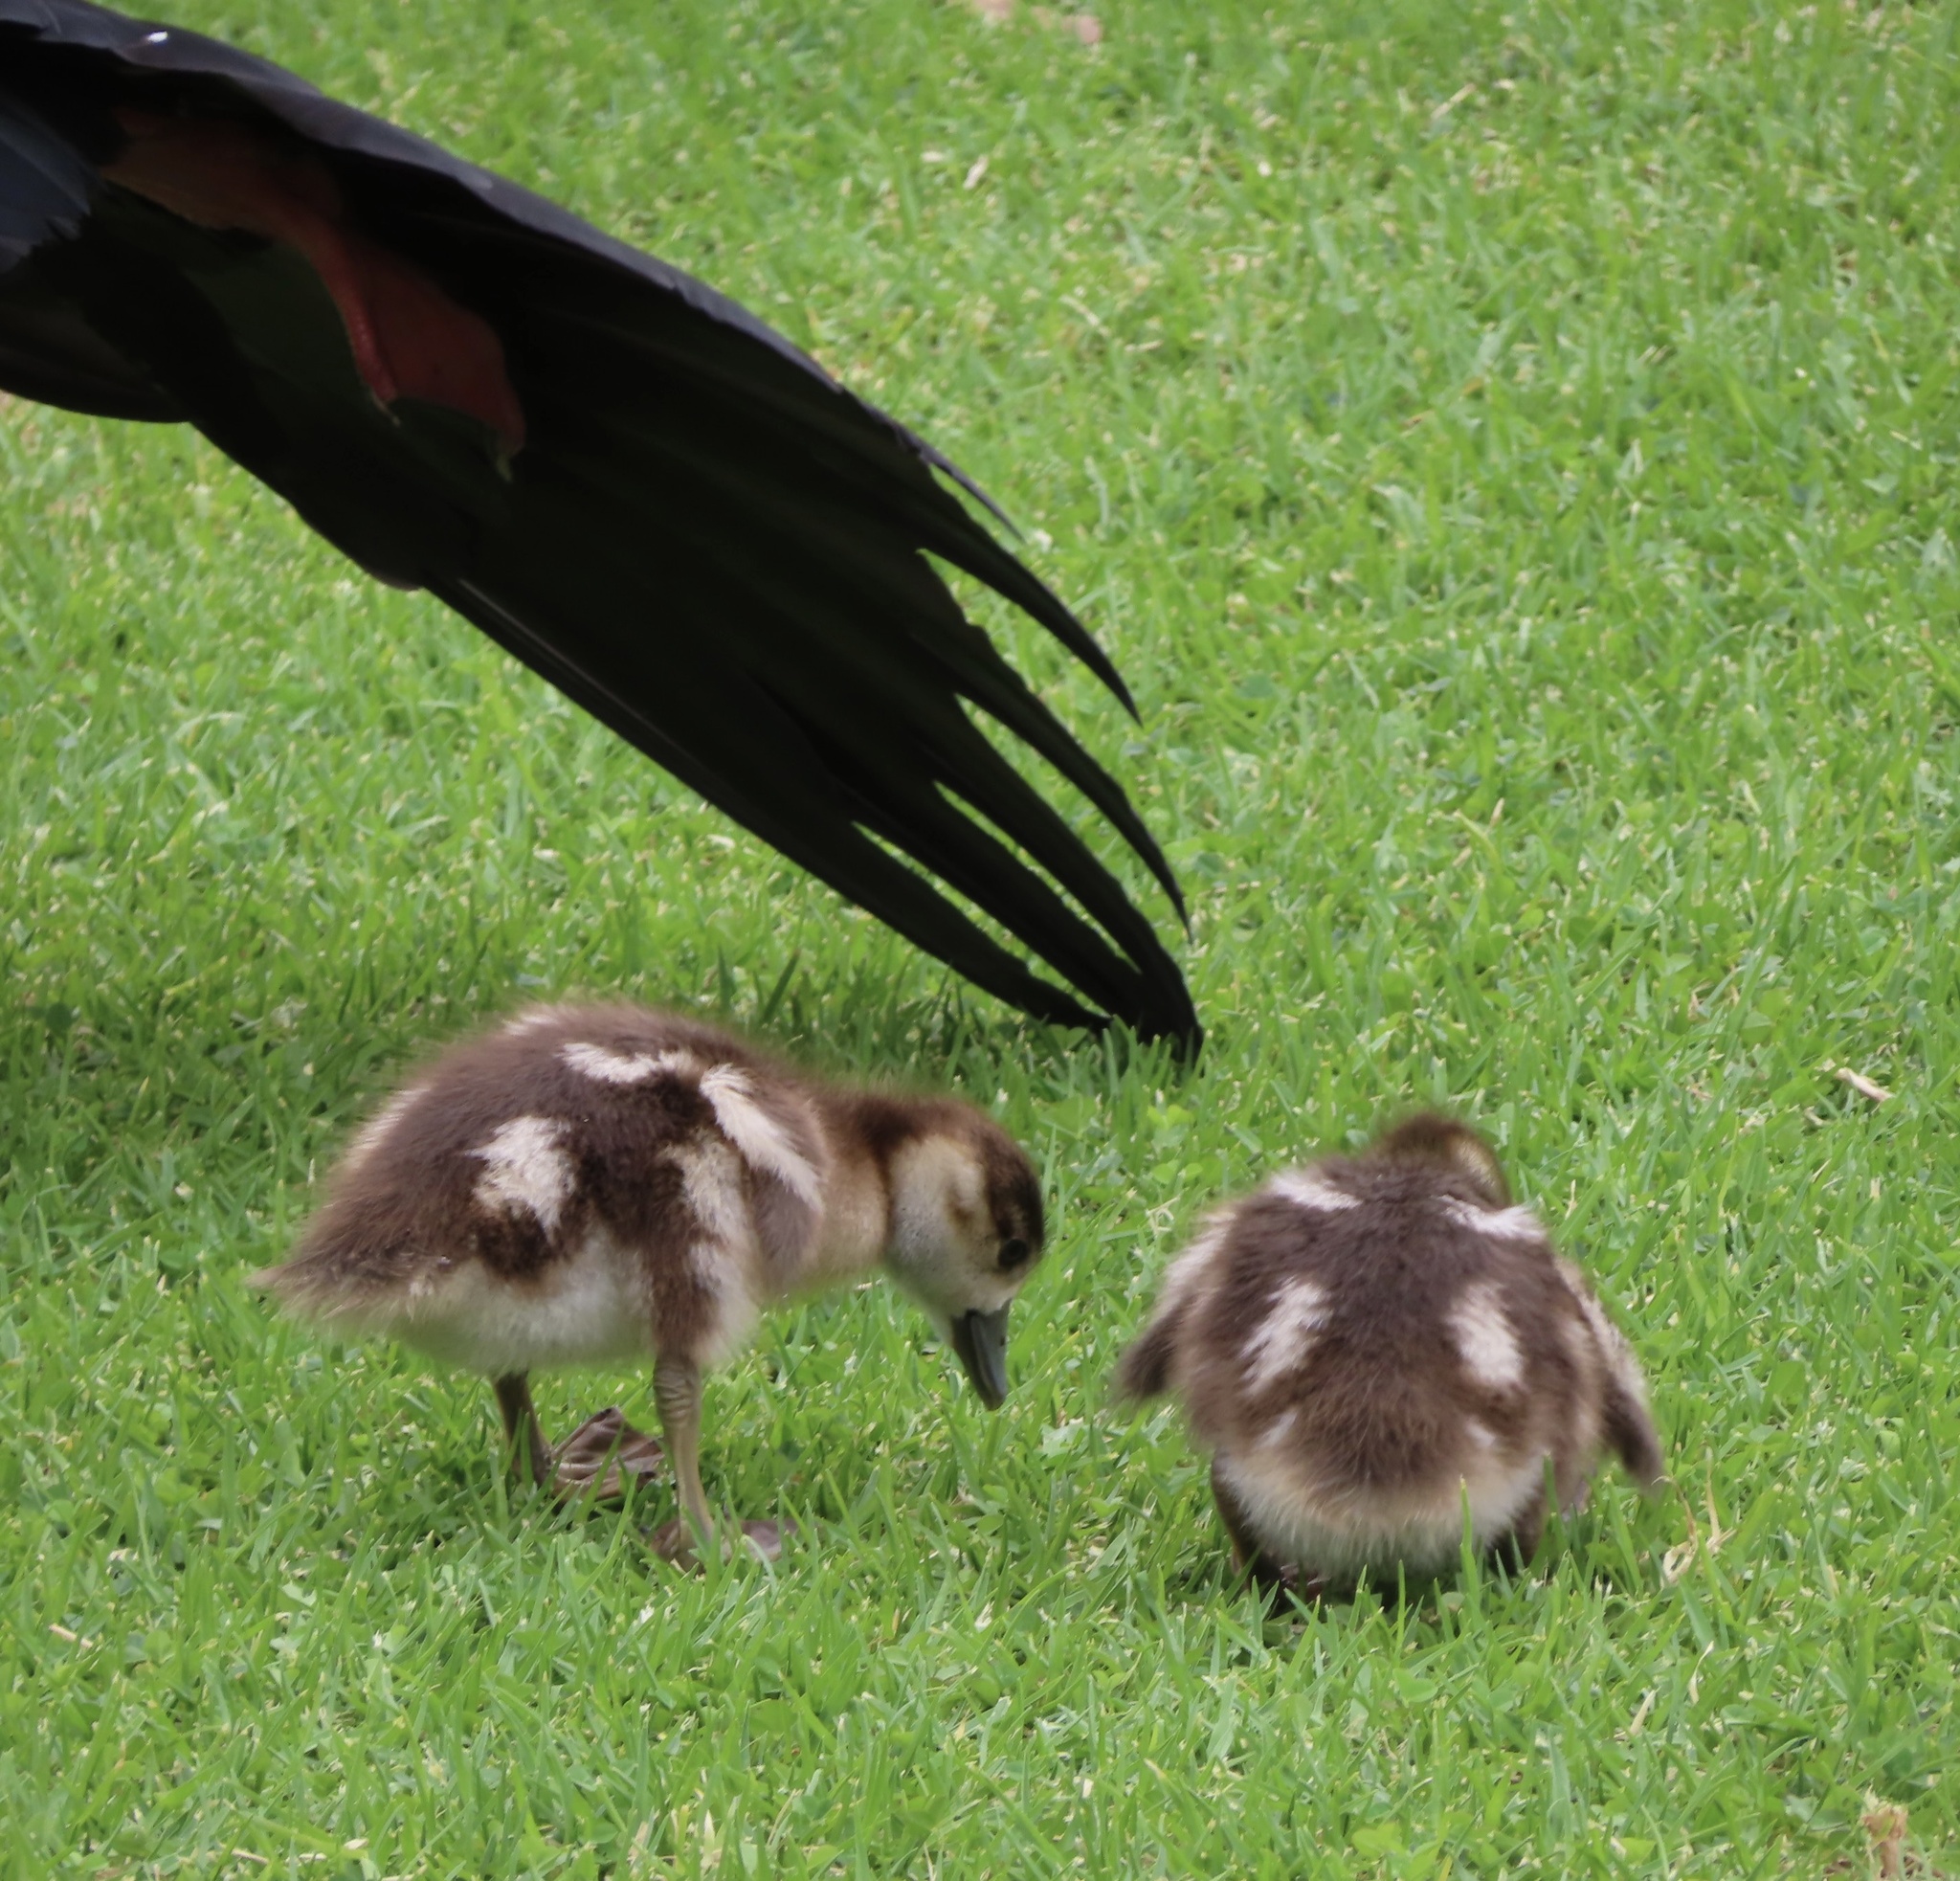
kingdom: Animalia
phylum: Chordata
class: Aves
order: Anseriformes
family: Anatidae
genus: Alopochen
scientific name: Alopochen aegyptiaca
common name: Egyptian goose
